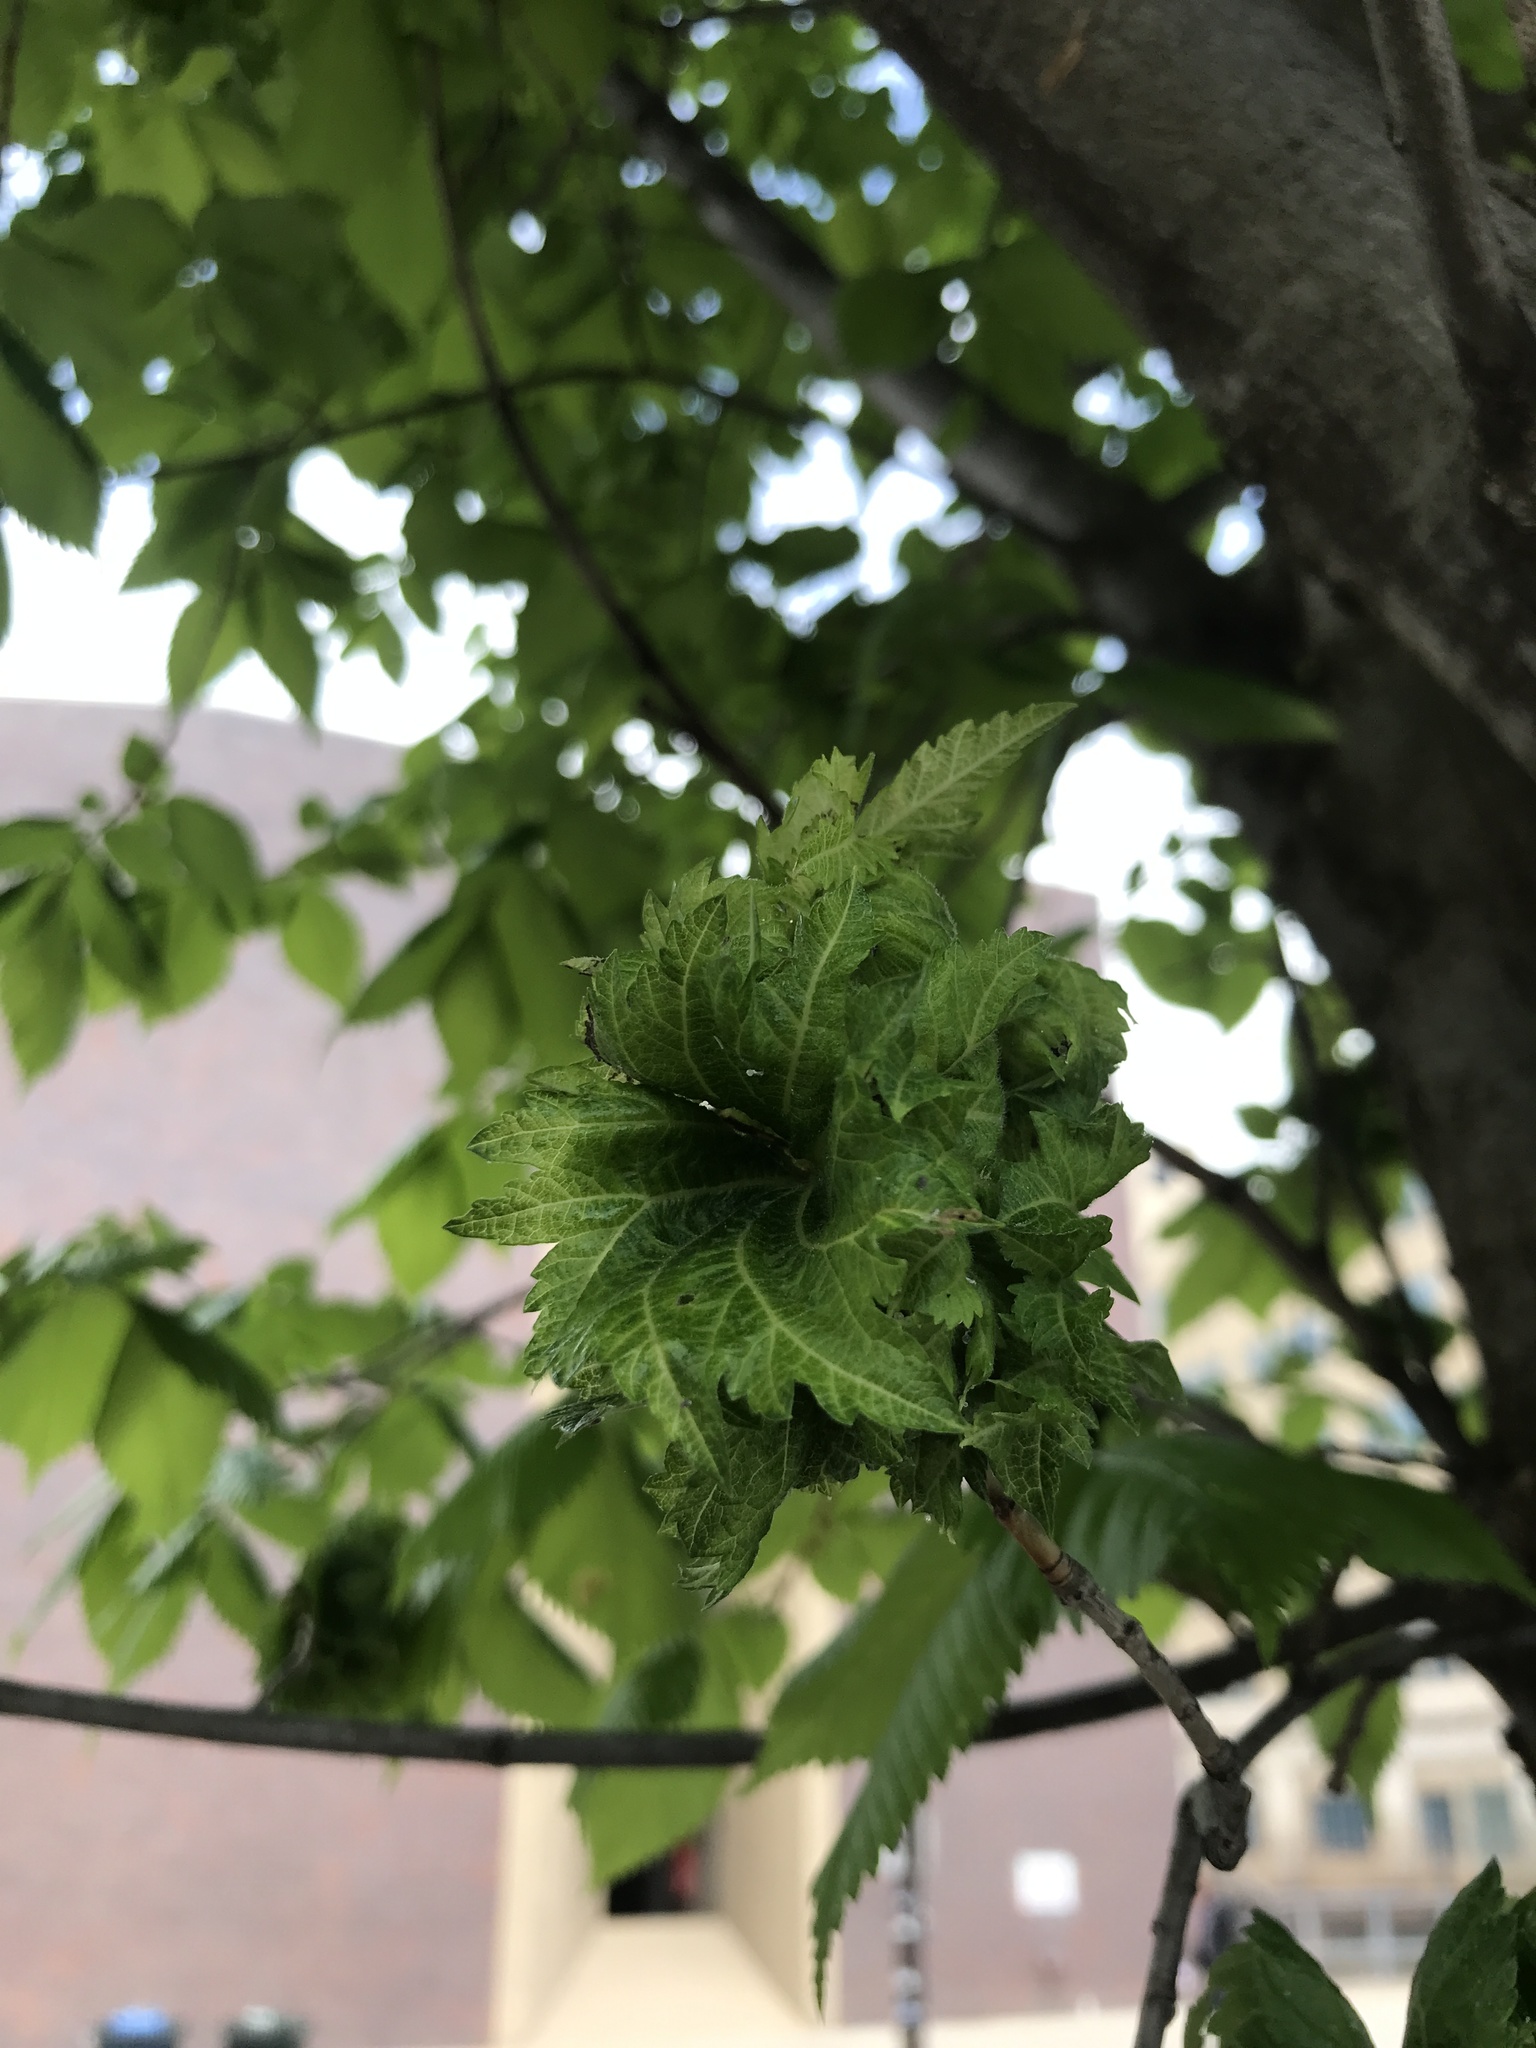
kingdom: Animalia
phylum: Arthropoda
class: Insecta
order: Hemiptera
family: Aphididae
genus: Eriosoma
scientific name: Eriosoma lanigerum
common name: Woolly apple aphid
